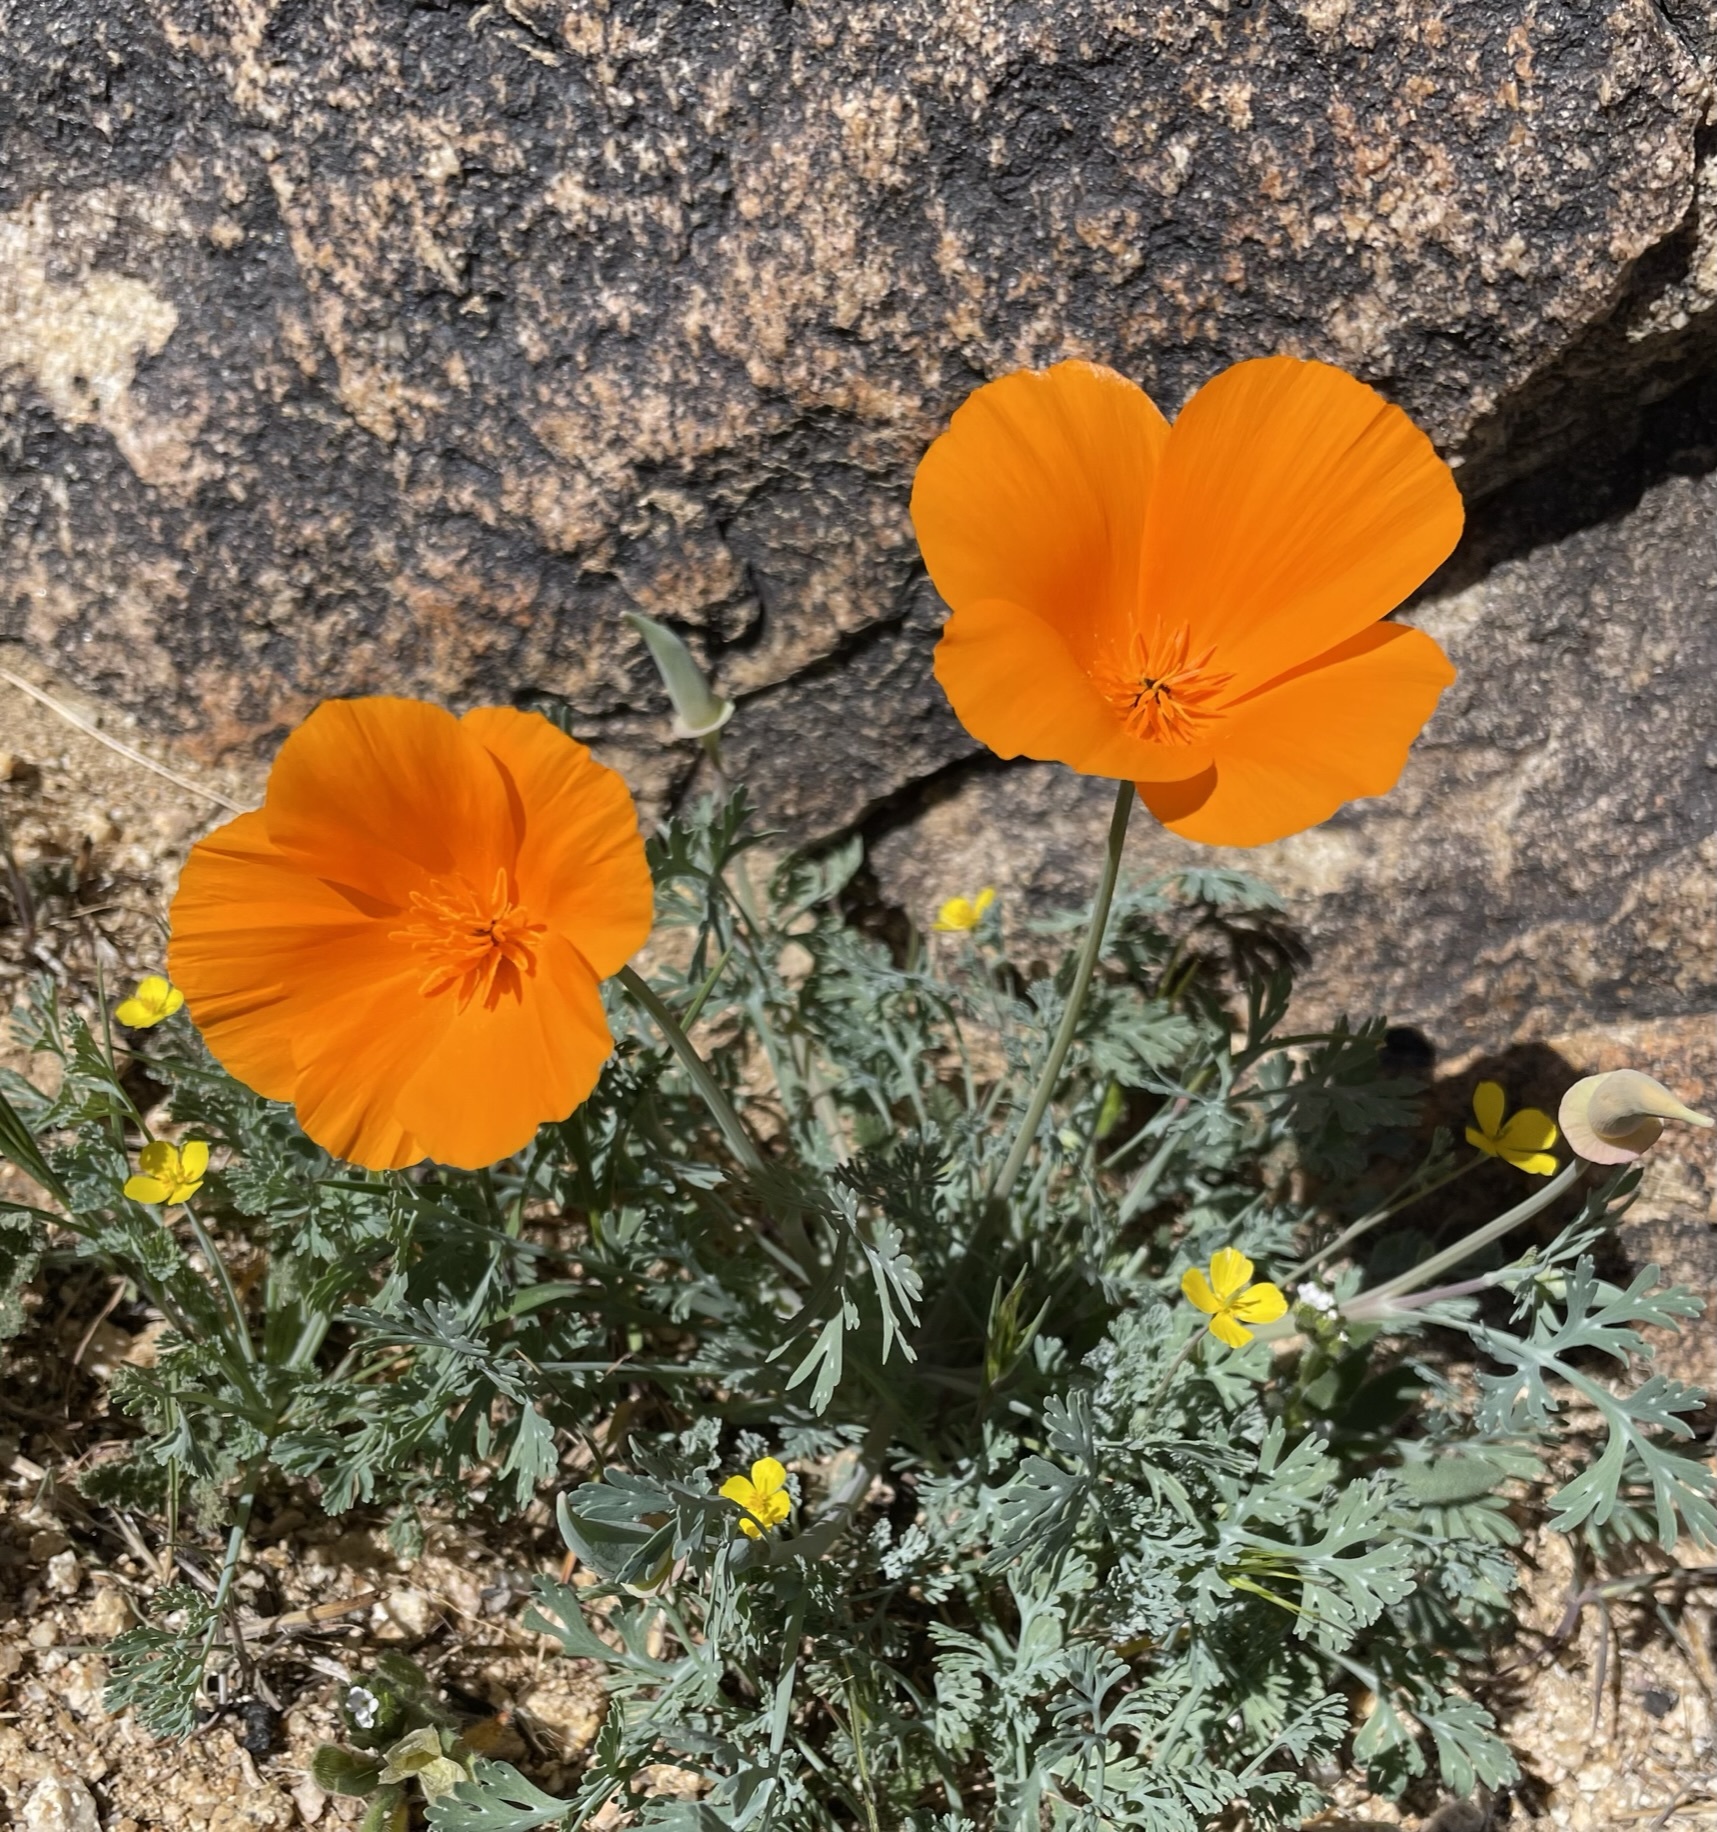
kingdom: Plantae
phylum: Tracheophyta
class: Magnoliopsida
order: Ranunculales
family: Papaveraceae
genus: Eschscholzia
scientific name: Eschscholzia californica
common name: California poppy
